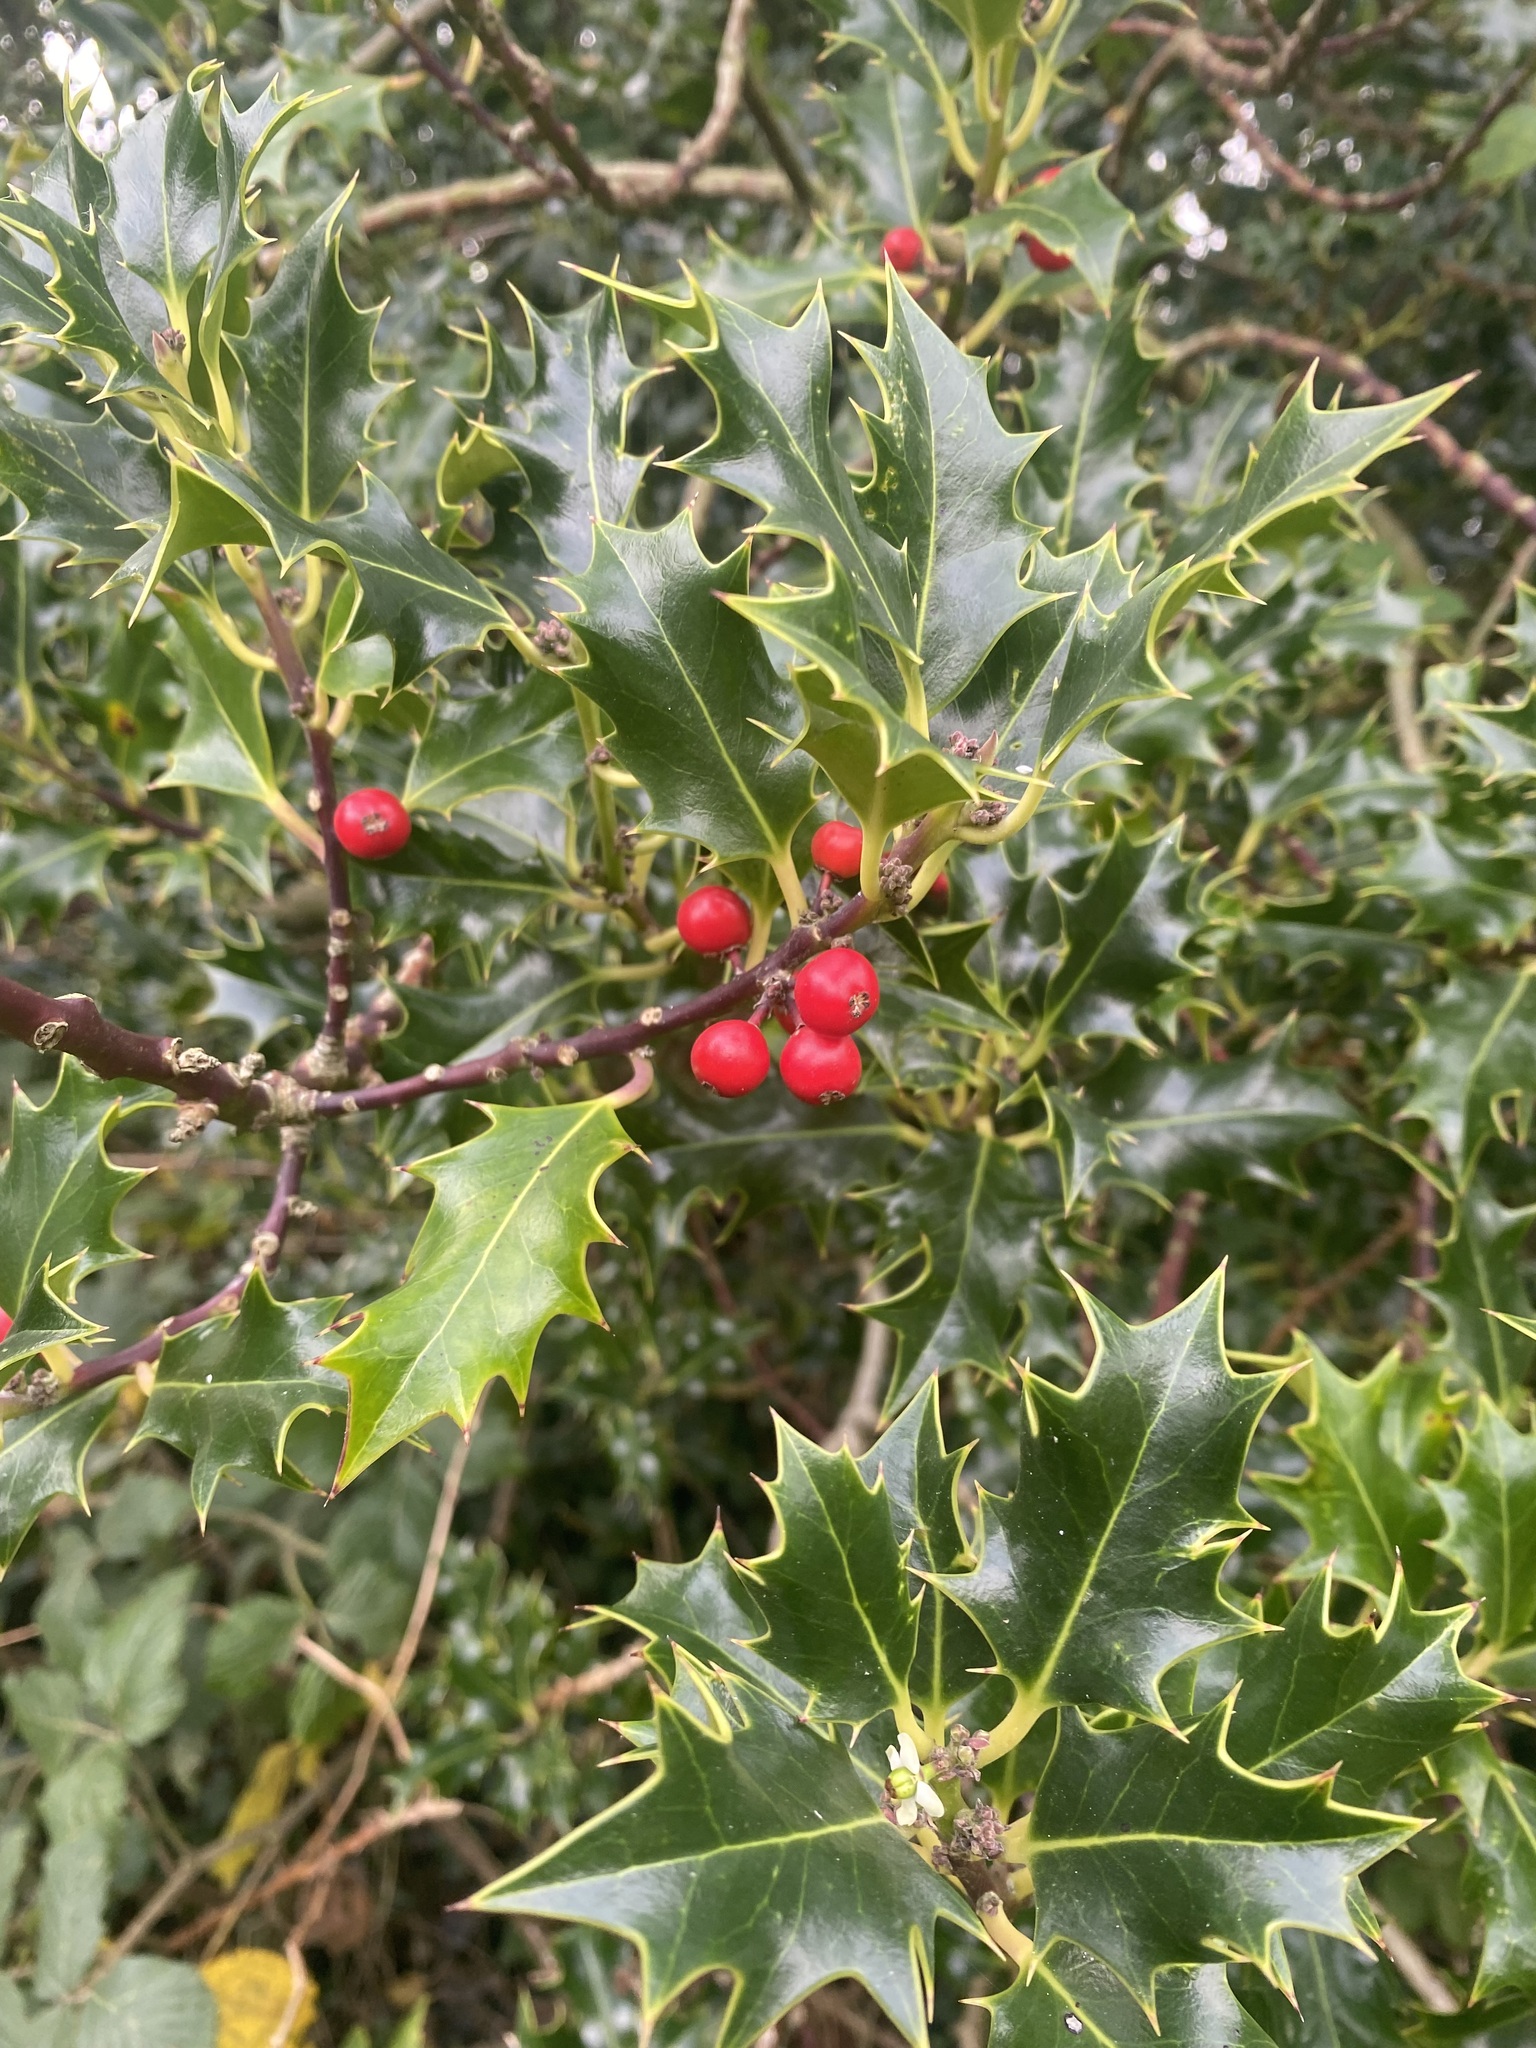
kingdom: Plantae
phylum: Tracheophyta
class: Magnoliopsida
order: Aquifoliales
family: Aquifoliaceae
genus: Ilex
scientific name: Ilex aquifolium
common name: English holly
